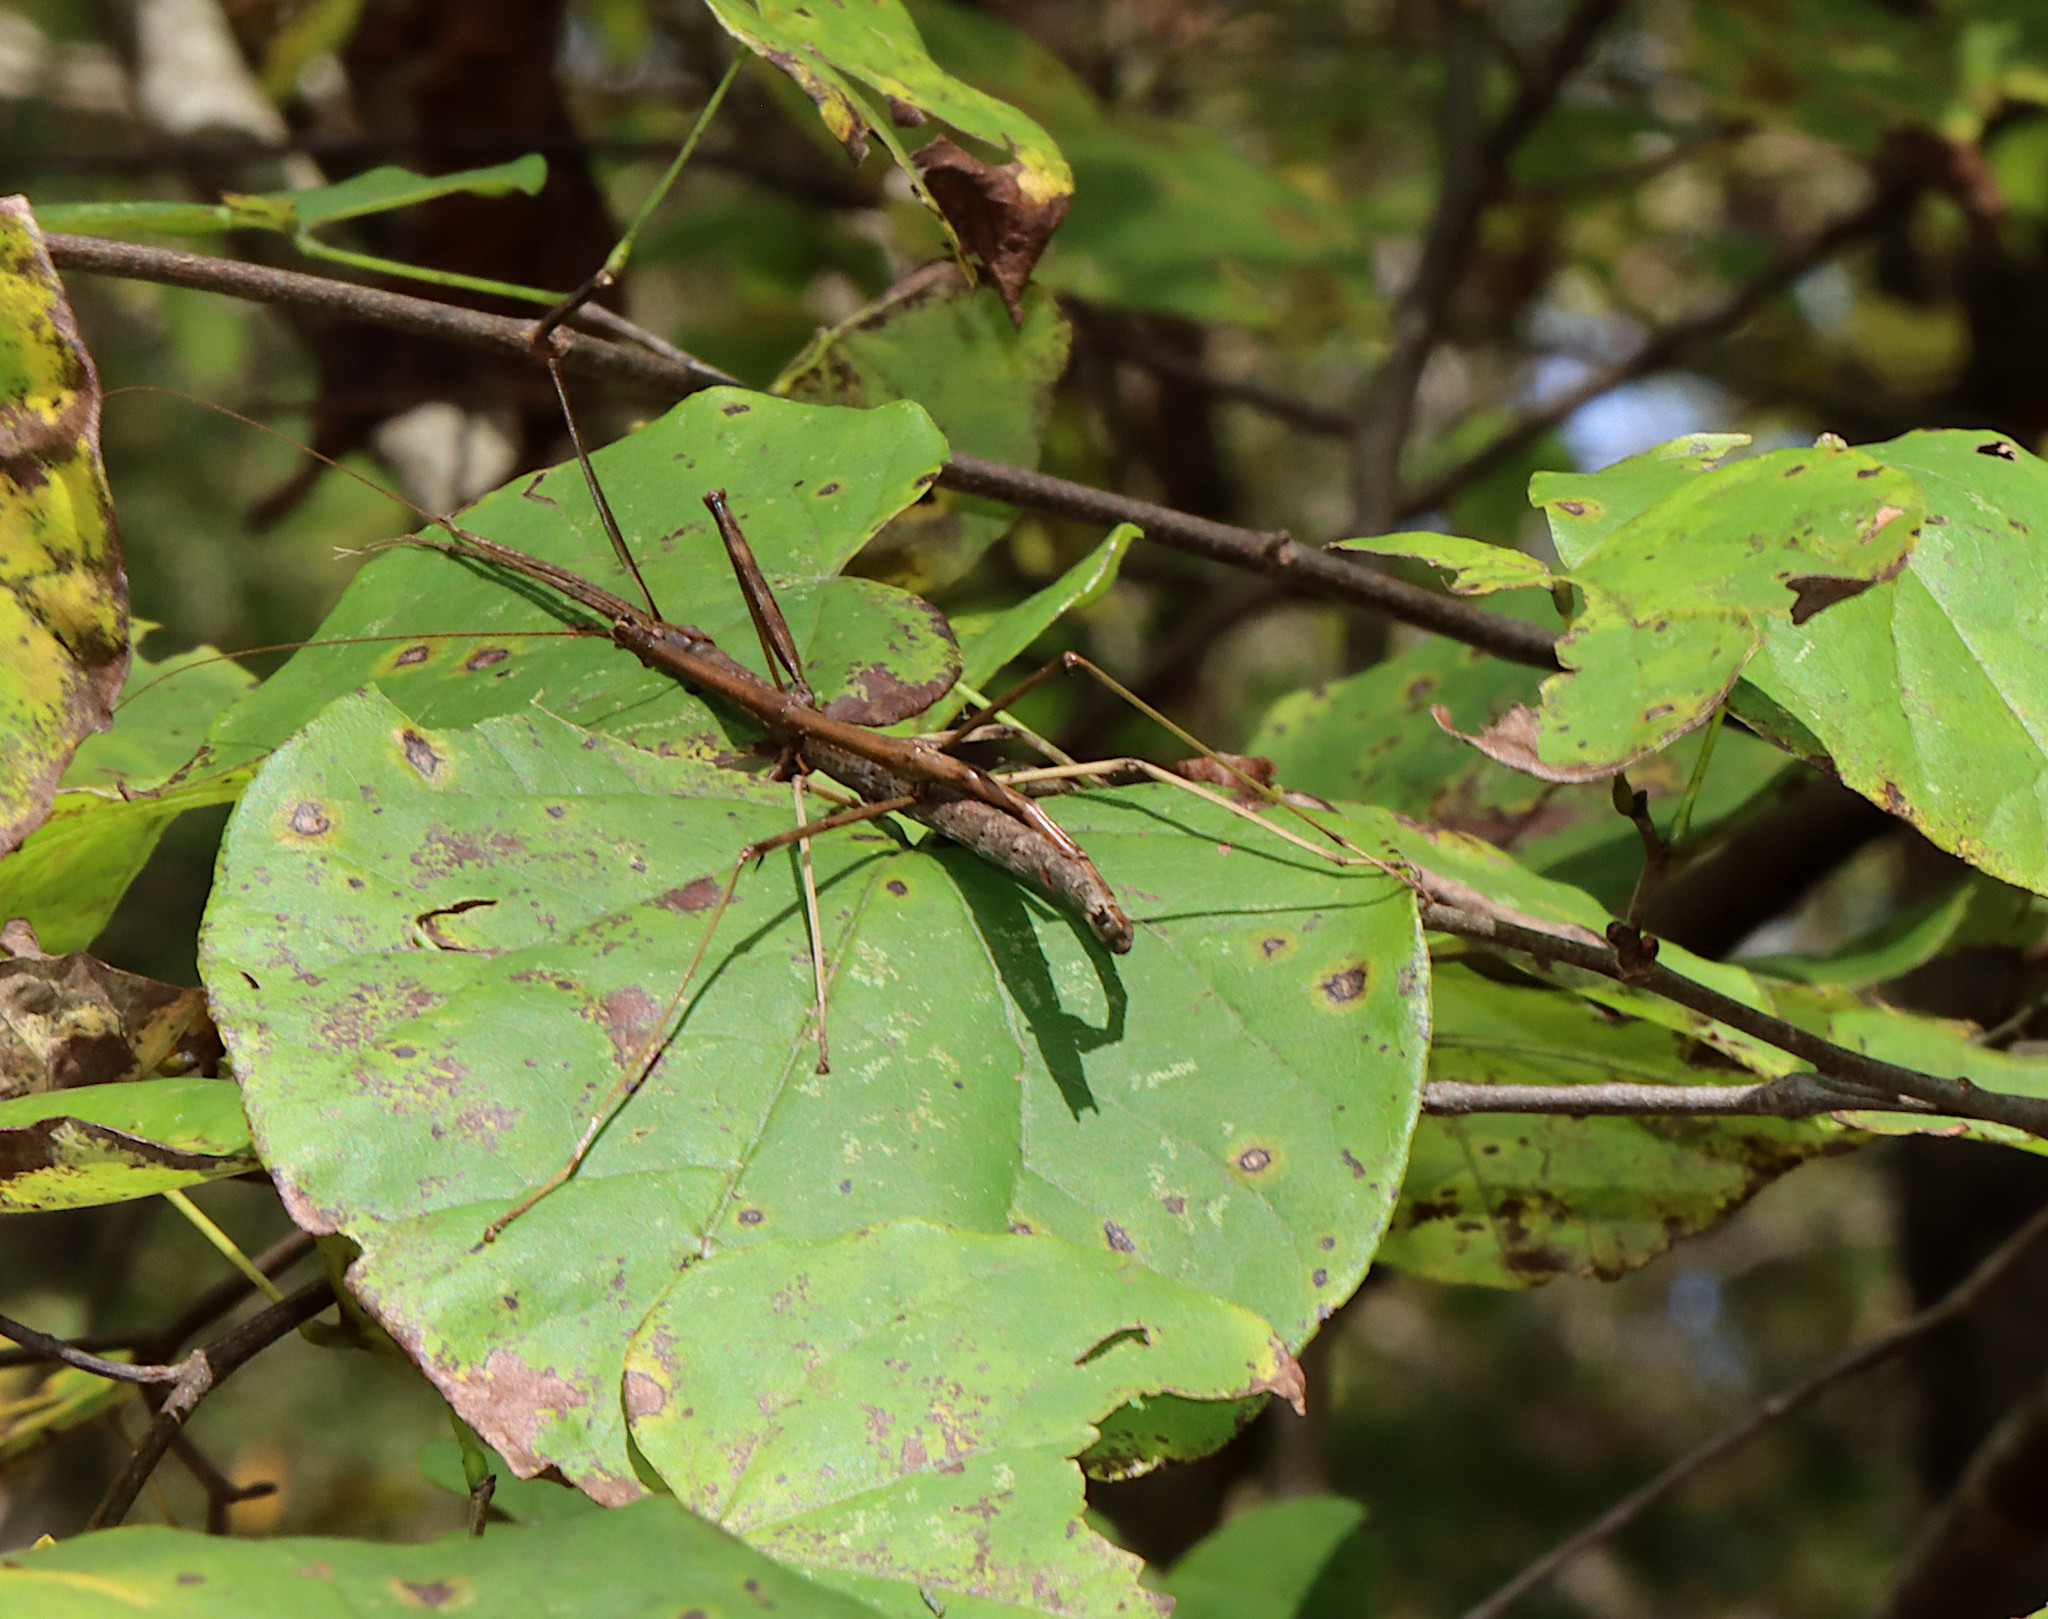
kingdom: Animalia
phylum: Arthropoda
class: Insecta
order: Phasmida
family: Diapheromeridae
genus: Diapheromera
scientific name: Diapheromera femorata
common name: Common american walkingstick
